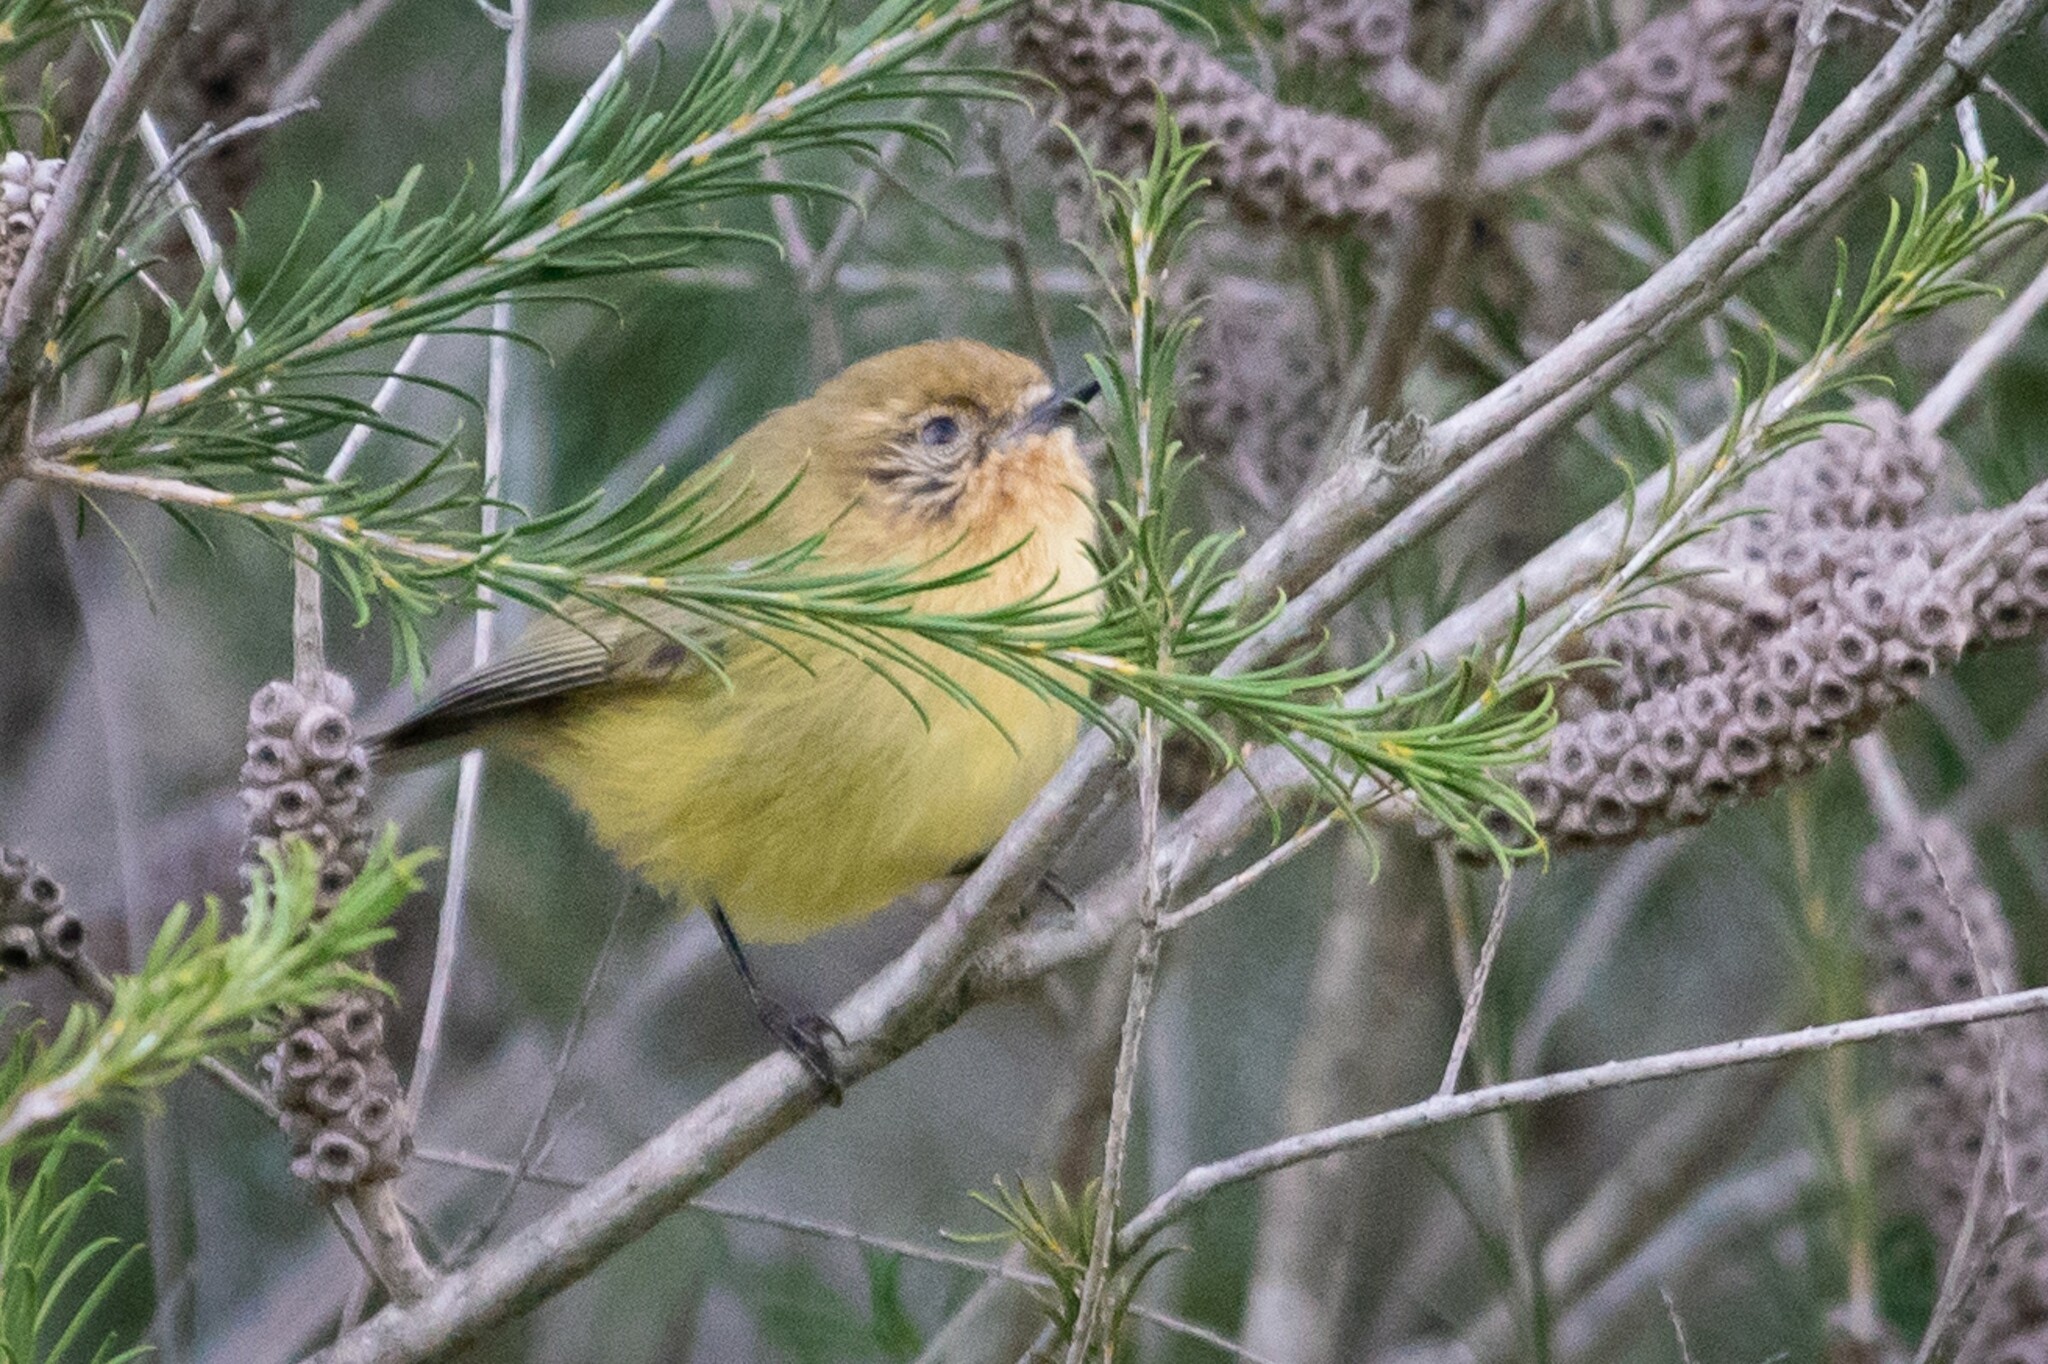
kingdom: Animalia
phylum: Chordata
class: Aves
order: Passeriformes
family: Acanthizidae
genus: Acanthiza
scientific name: Acanthiza nana
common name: Yellow thornbill
